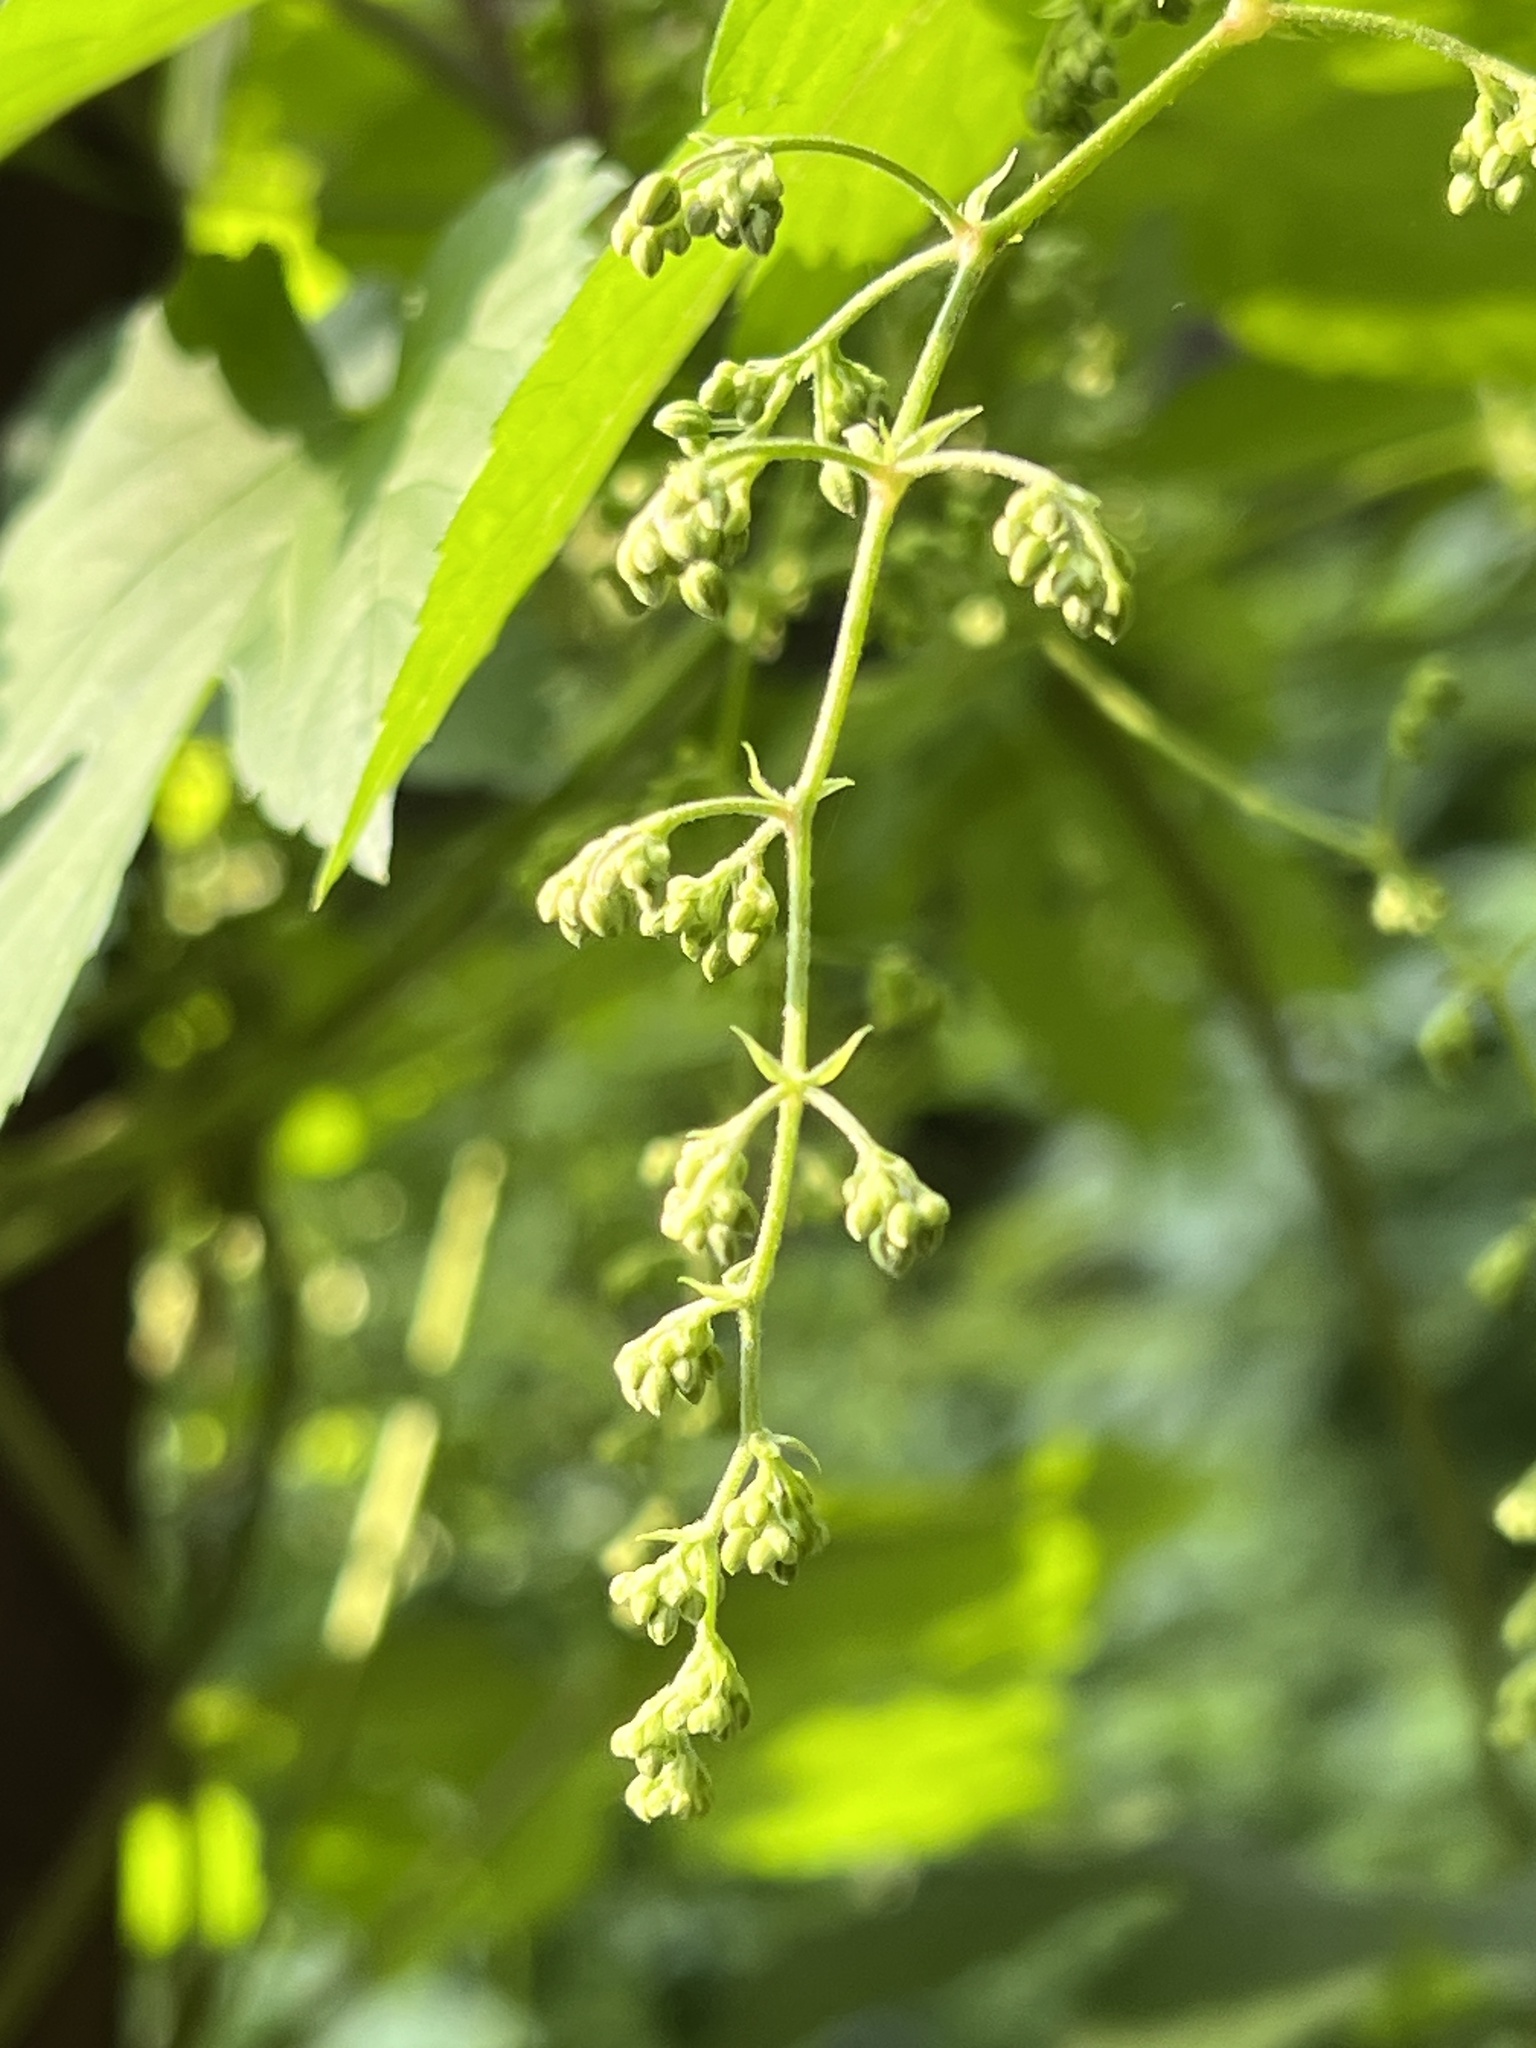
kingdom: Plantae
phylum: Tracheophyta
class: Magnoliopsida
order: Rosales
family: Cannabaceae
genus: Humulus
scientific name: Humulus lupulus
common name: Hop
